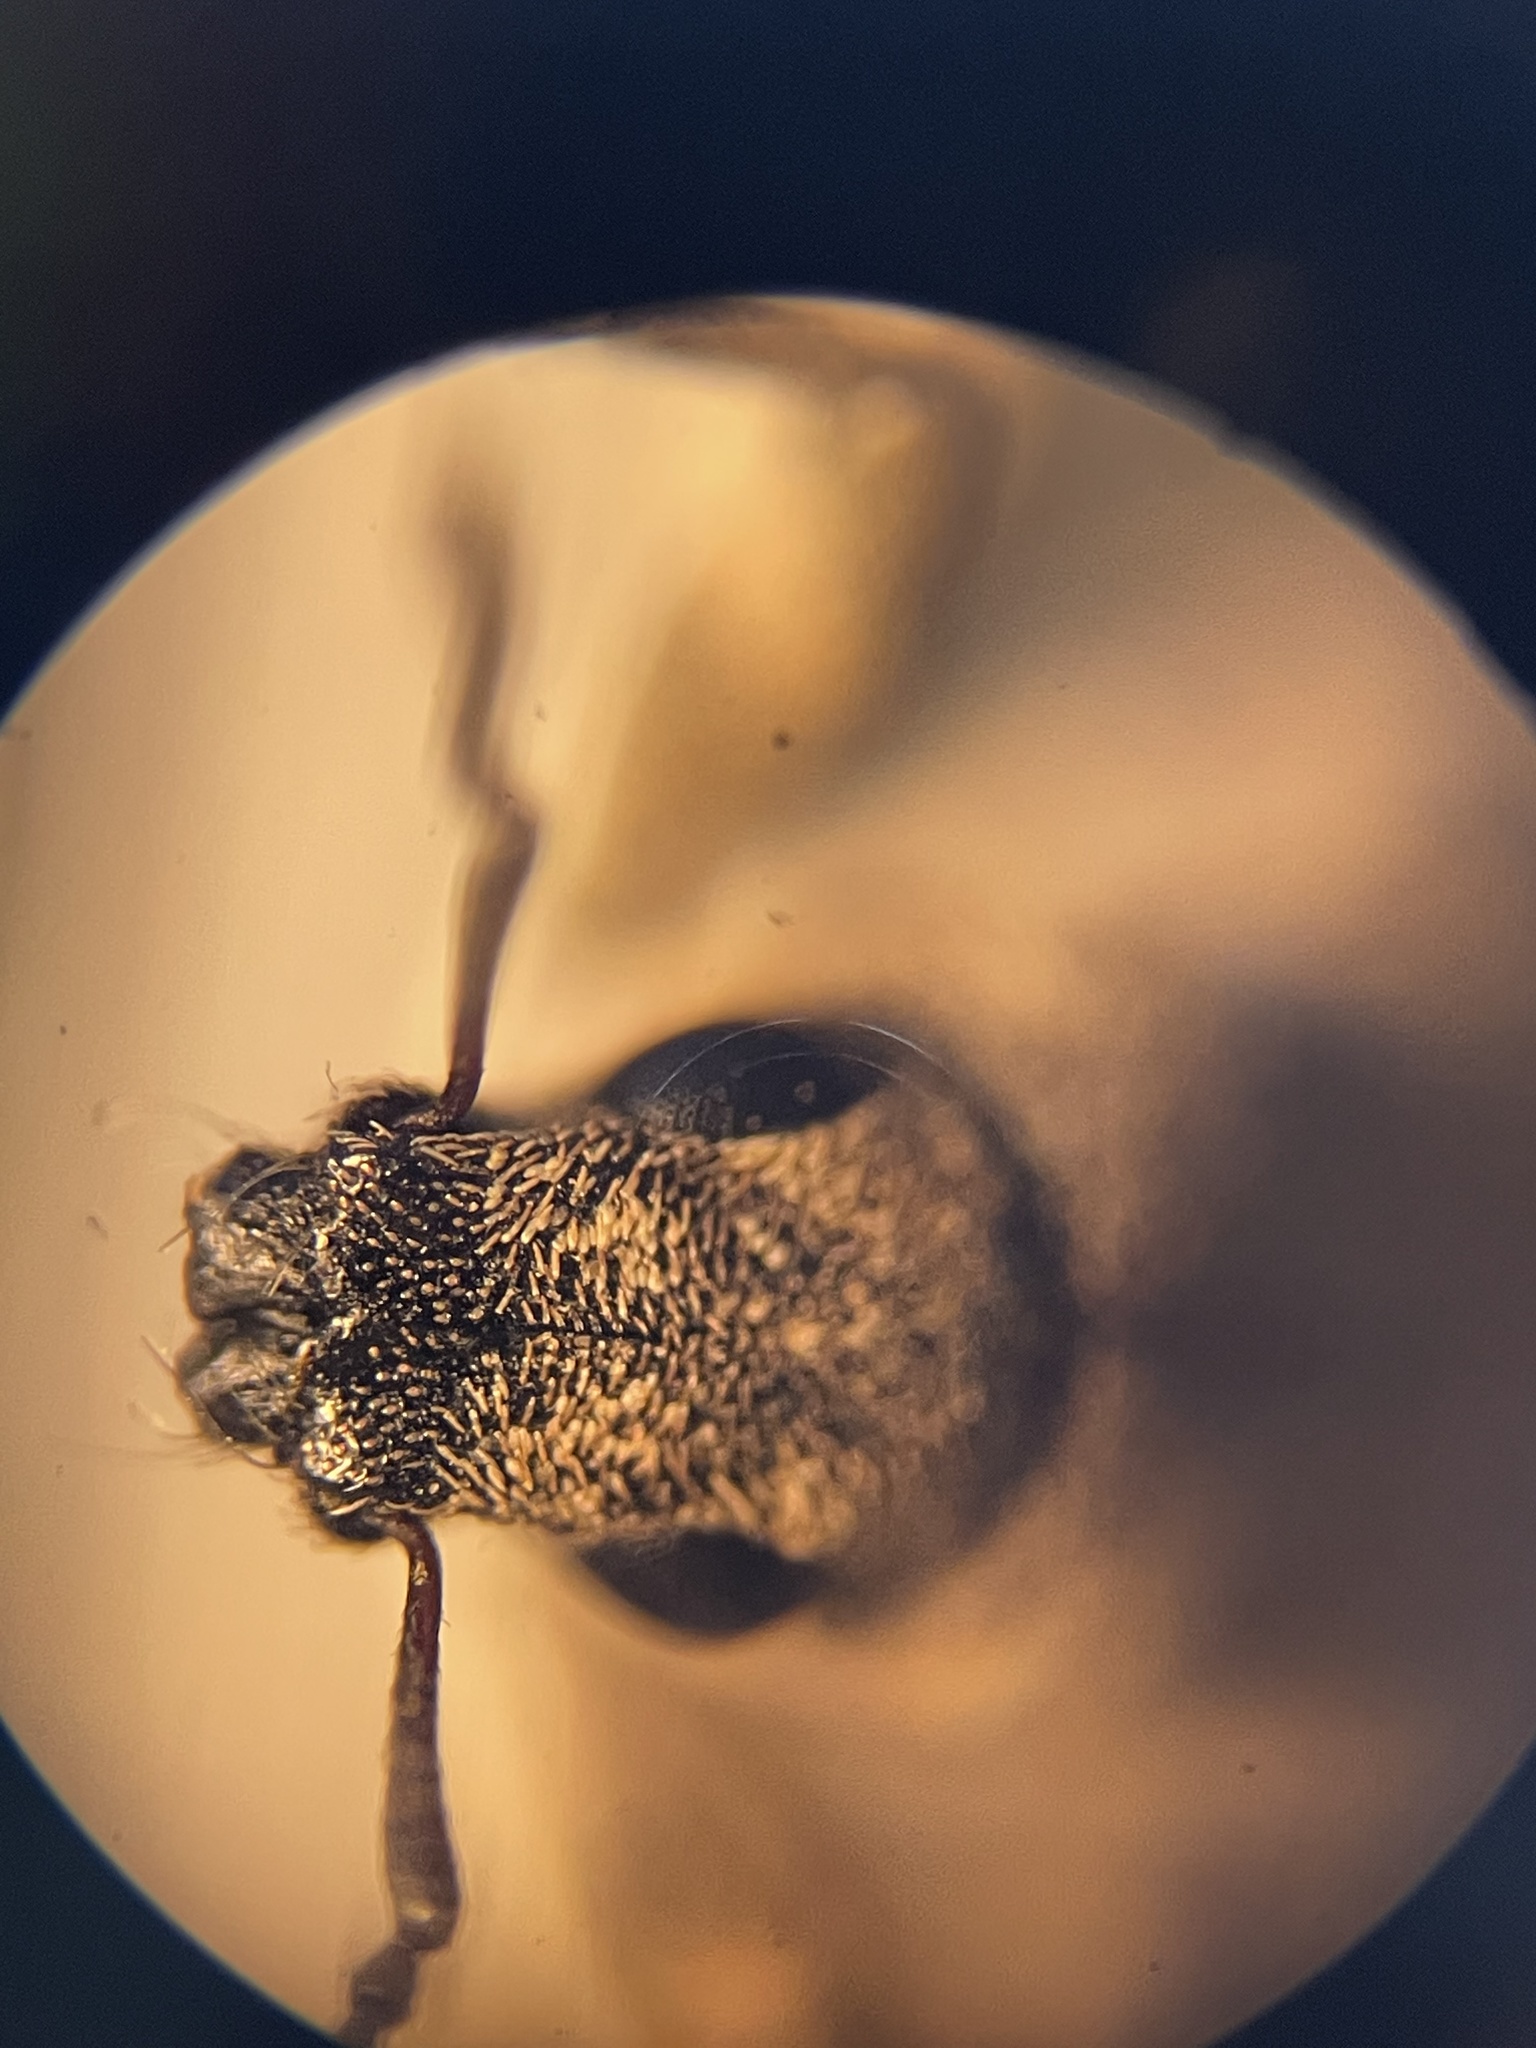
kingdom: Animalia
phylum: Arthropoda
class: Insecta
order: Coleoptera
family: Curculionidae
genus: Tanymecus
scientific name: Tanymecus confusus
